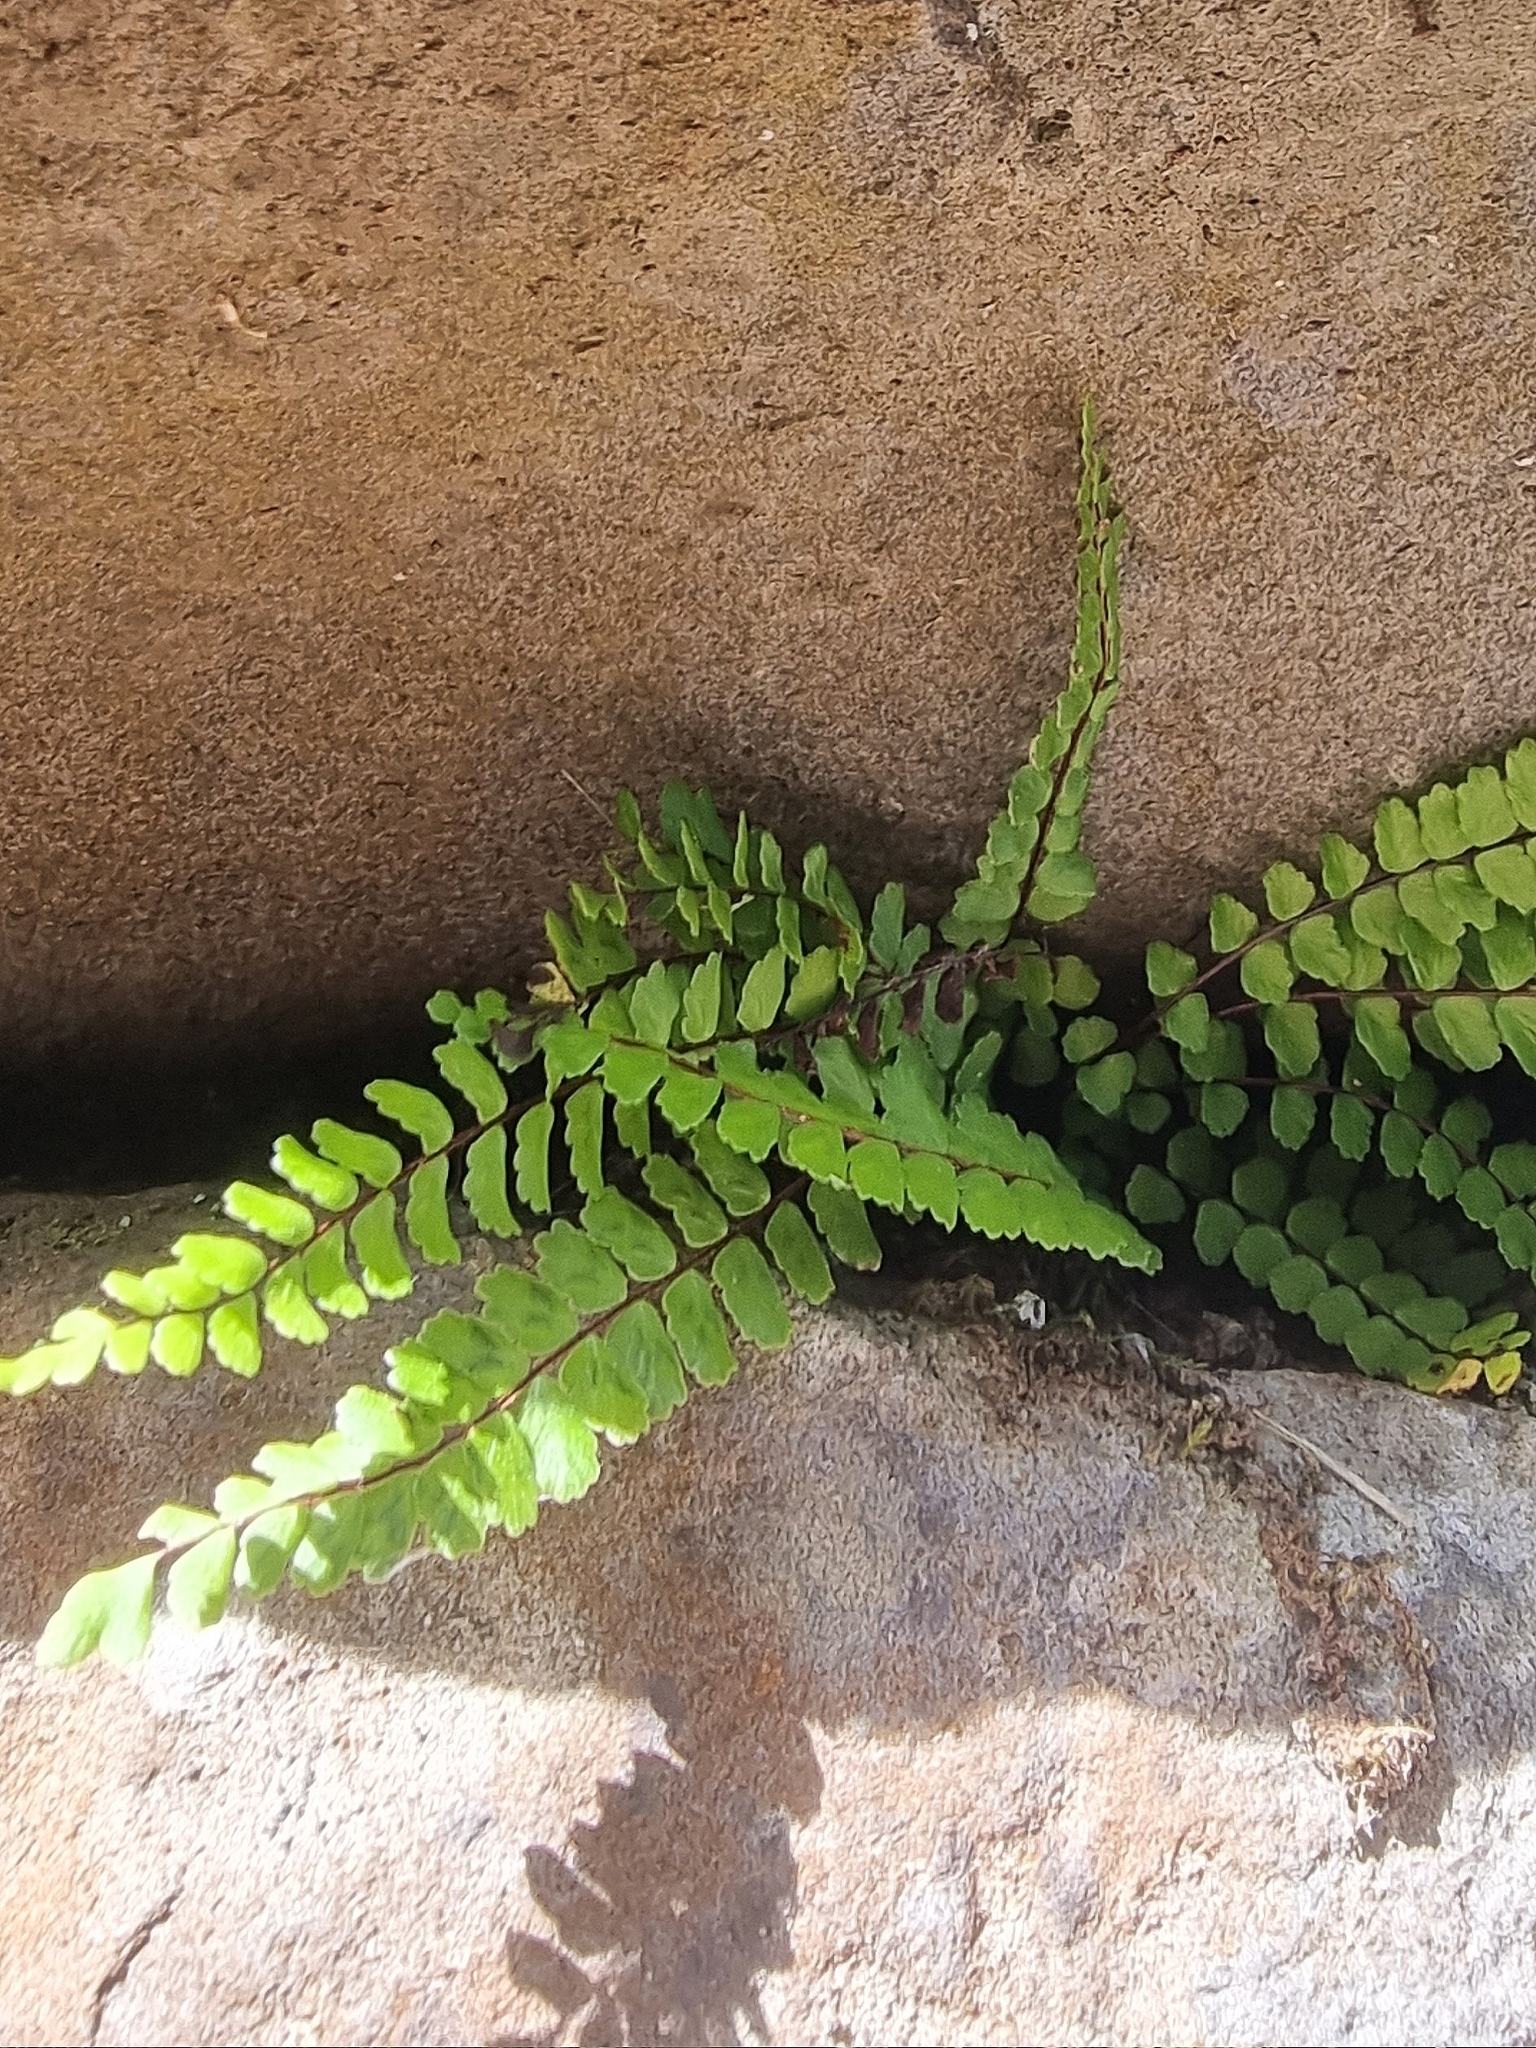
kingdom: Plantae
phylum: Tracheophyta
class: Polypodiopsida
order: Polypodiales
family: Aspleniaceae
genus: Asplenium
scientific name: Asplenium trichomanes
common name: Maidenhair spleenwort
